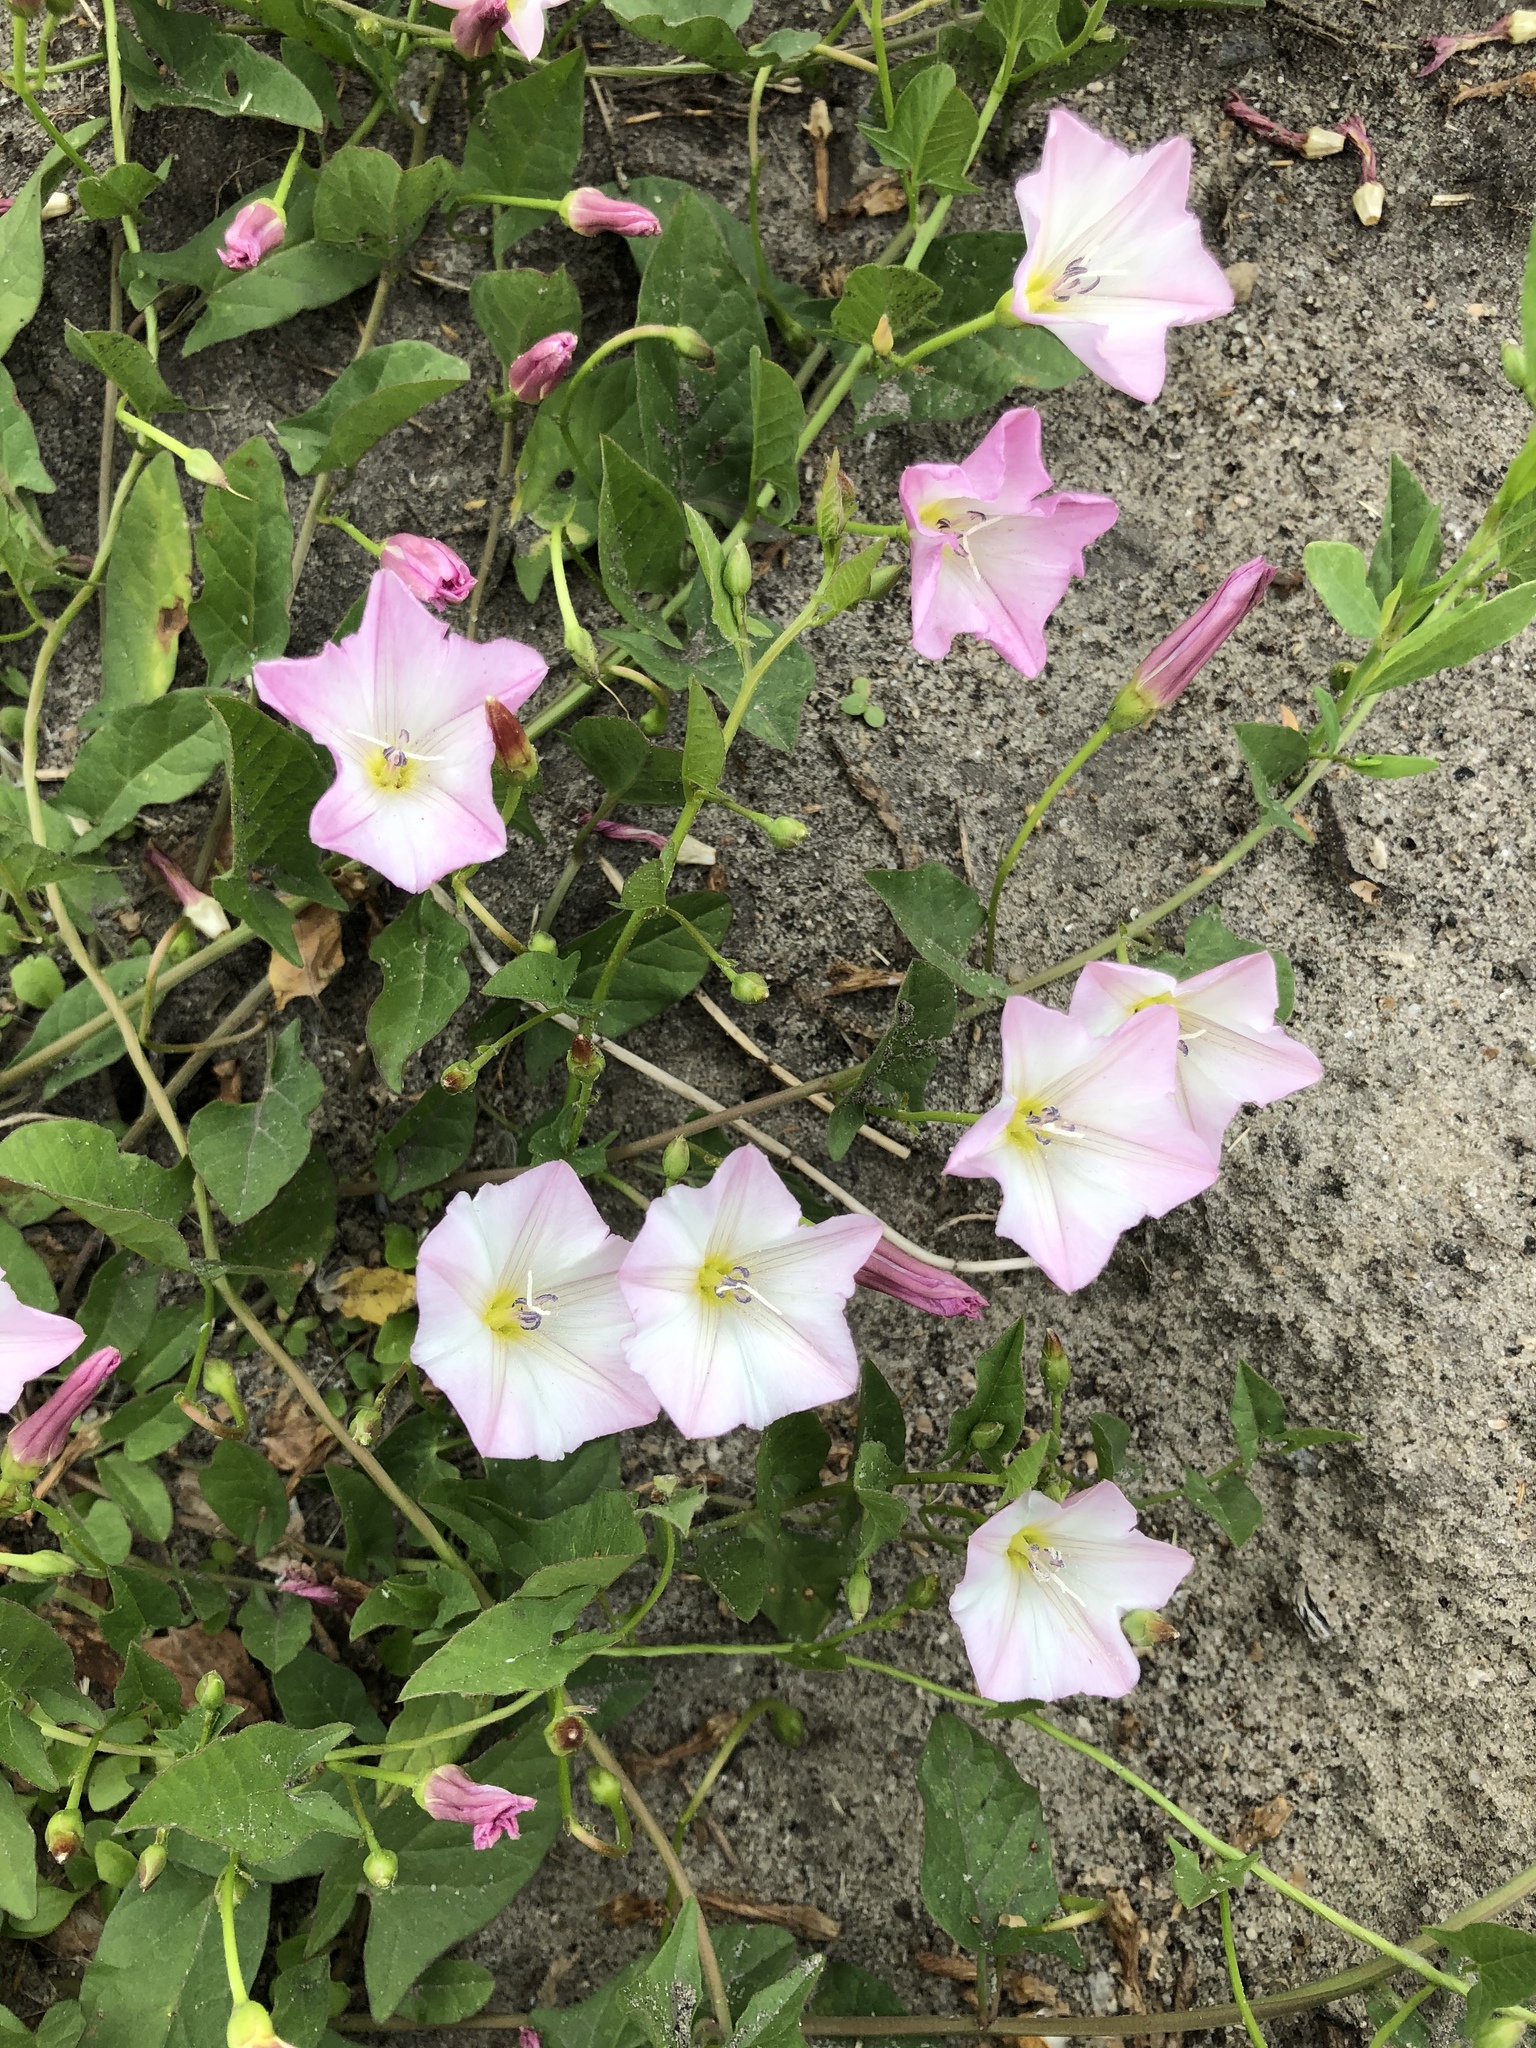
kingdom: Plantae
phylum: Tracheophyta
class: Magnoliopsida
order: Solanales
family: Convolvulaceae
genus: Convolvulus
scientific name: Convolvulus arvensis
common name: Field bindweed
